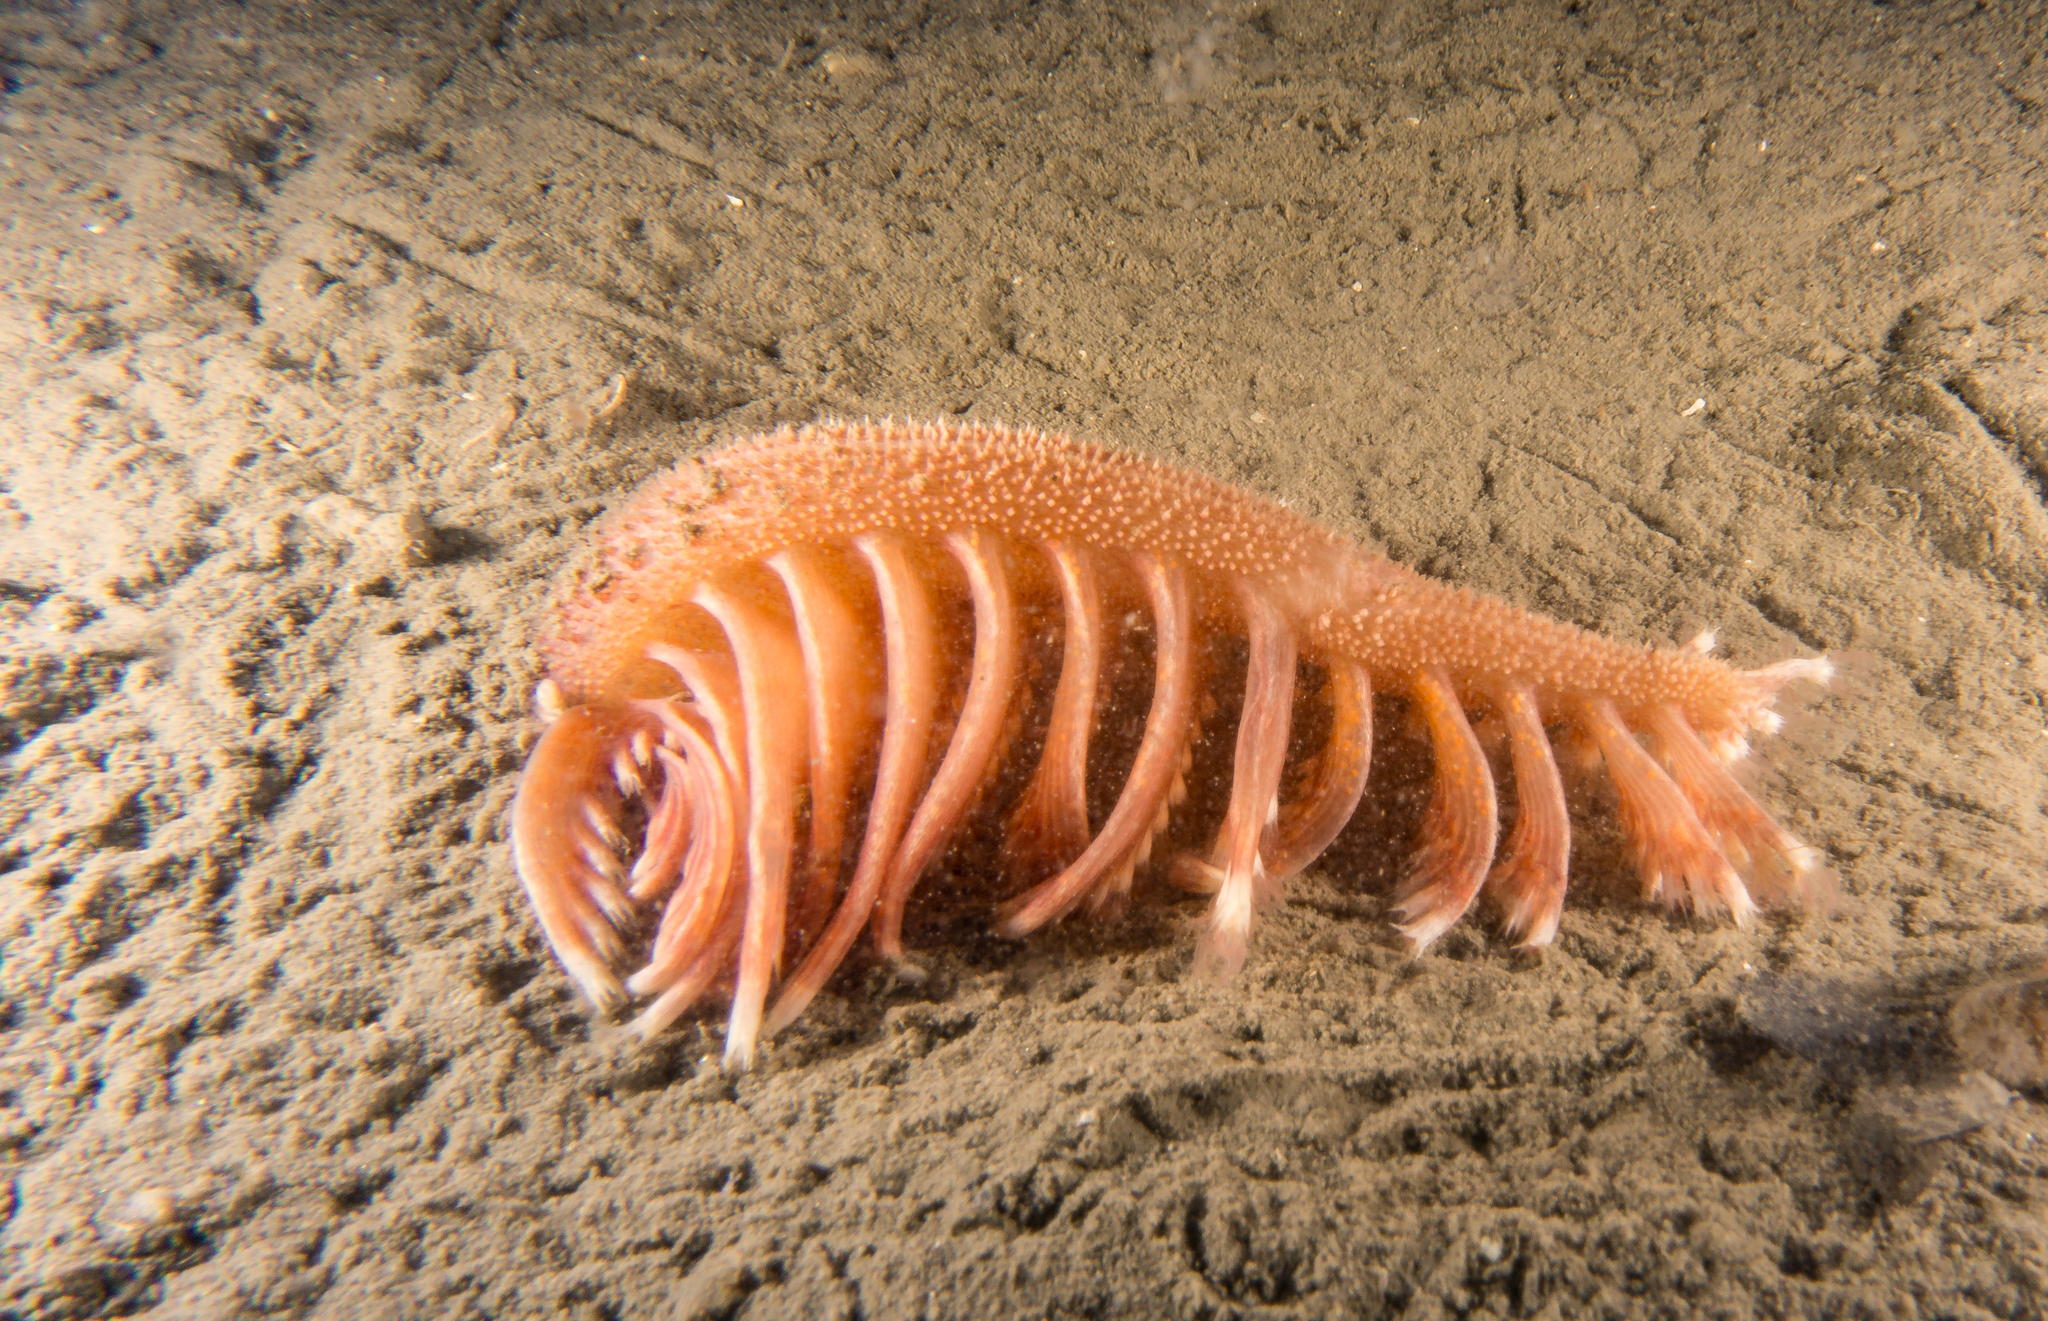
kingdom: Animalia
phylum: Cnidaria
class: Anthozoa
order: Scleralcyonacea
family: Pennatulidae
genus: Pennatula
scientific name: Pennatula phosphorea
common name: Phosphorescent sea pen
